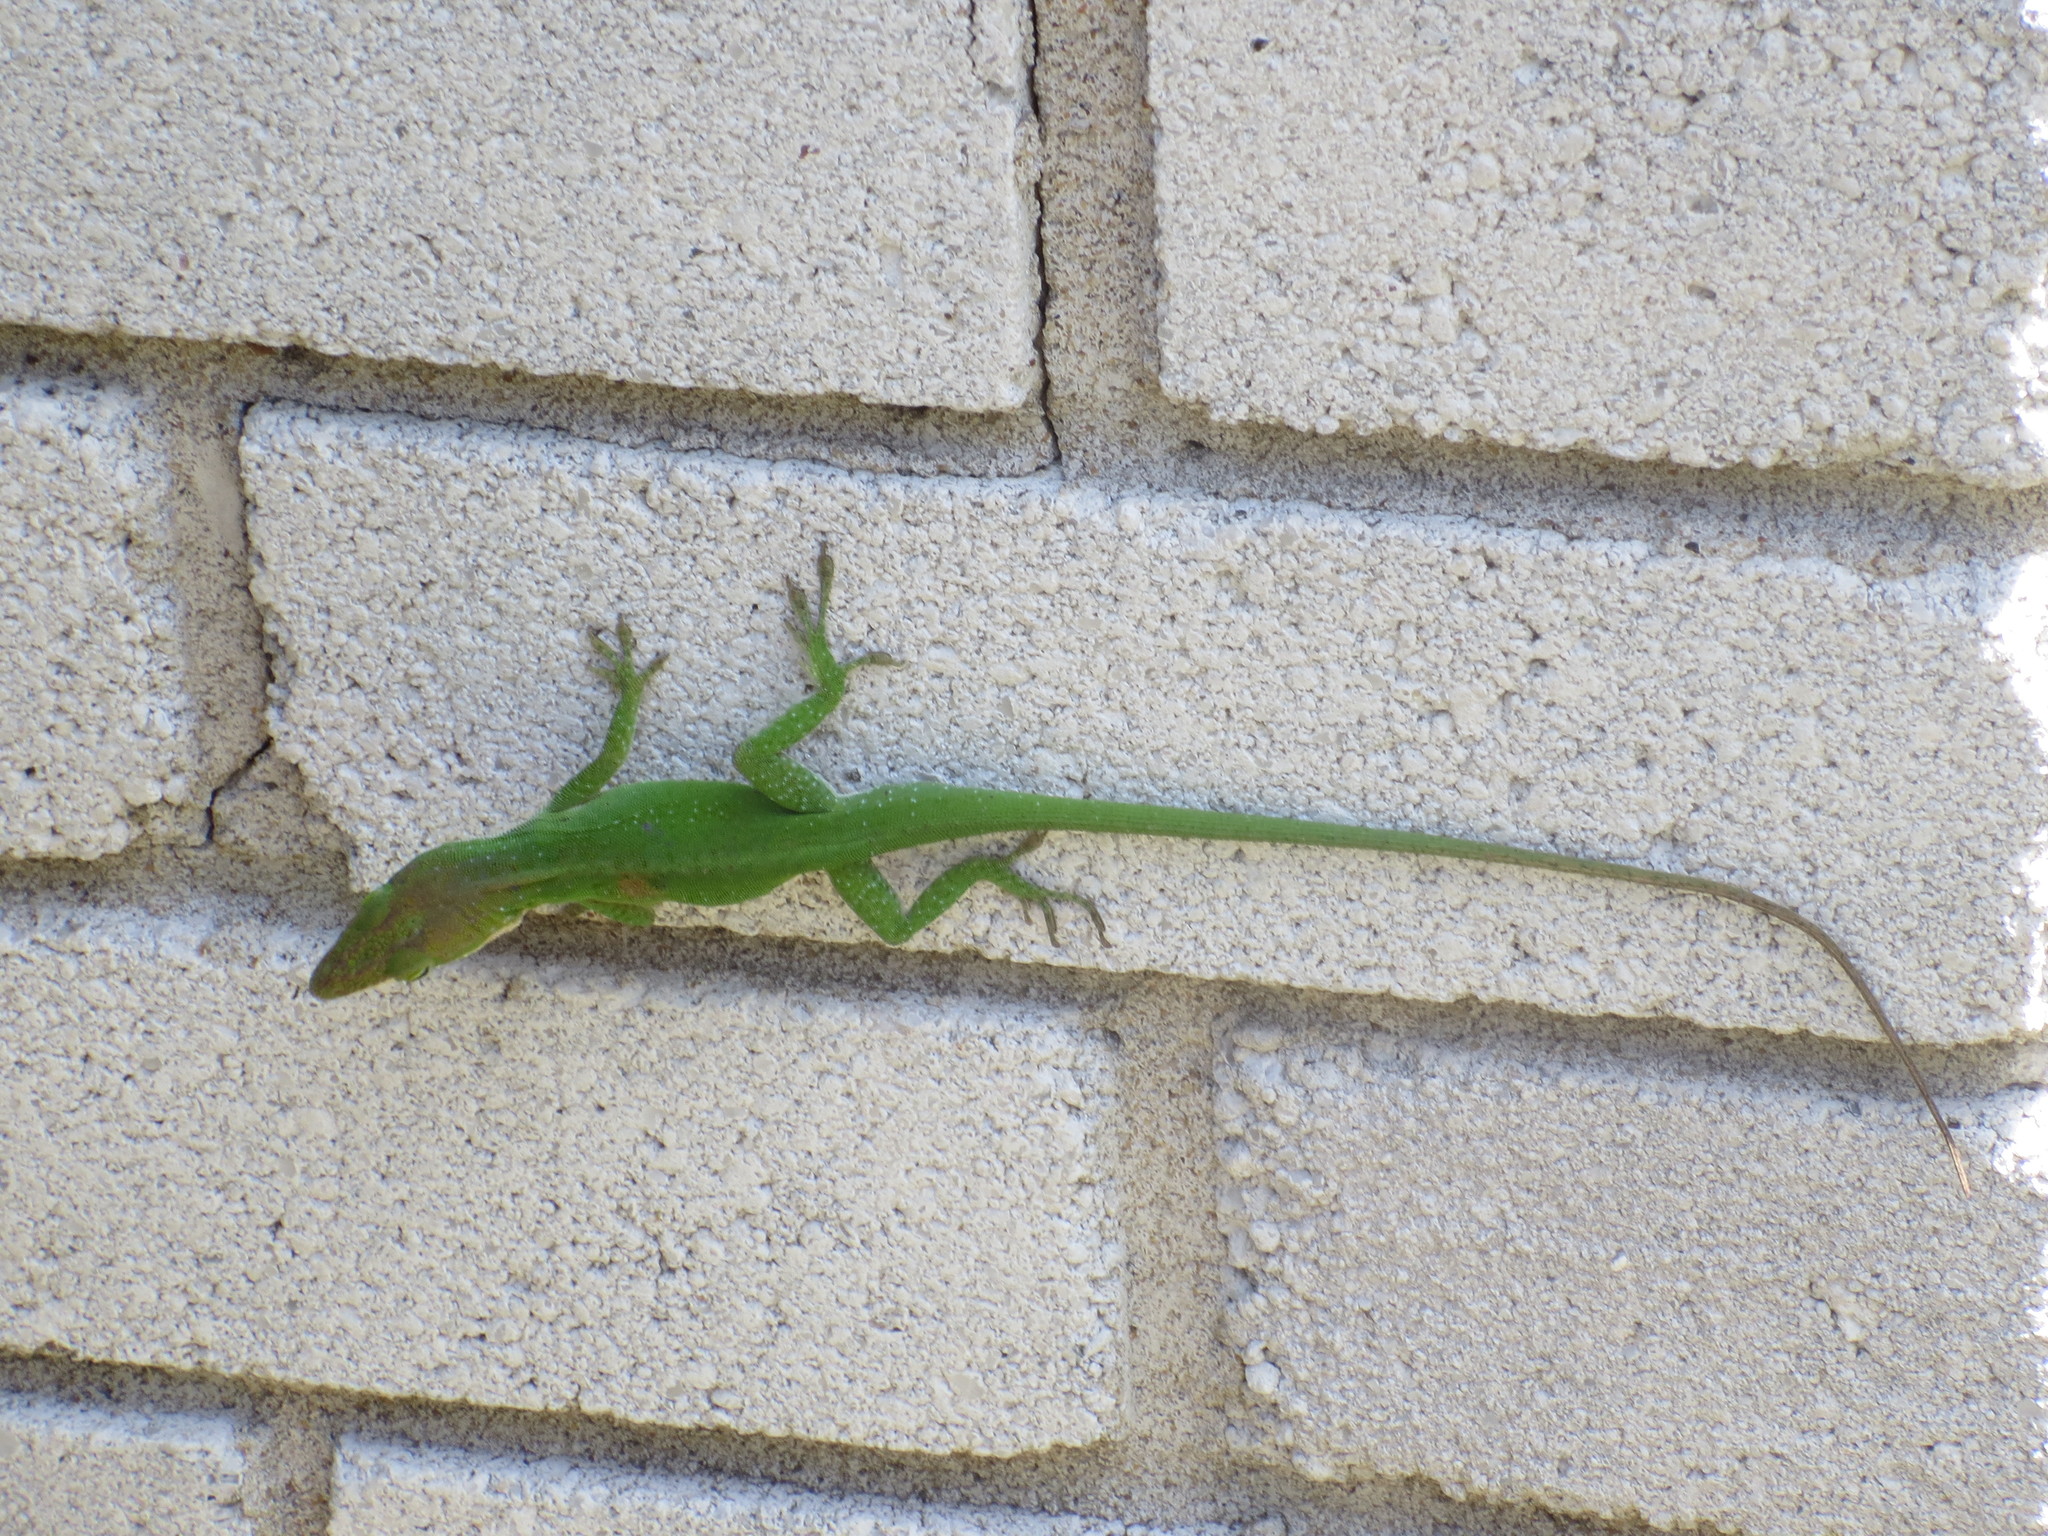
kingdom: Animalia
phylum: Chordata
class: Squamata
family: Dactyloidae
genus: Anolis
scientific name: Anolis carolinensis
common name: Green anole
